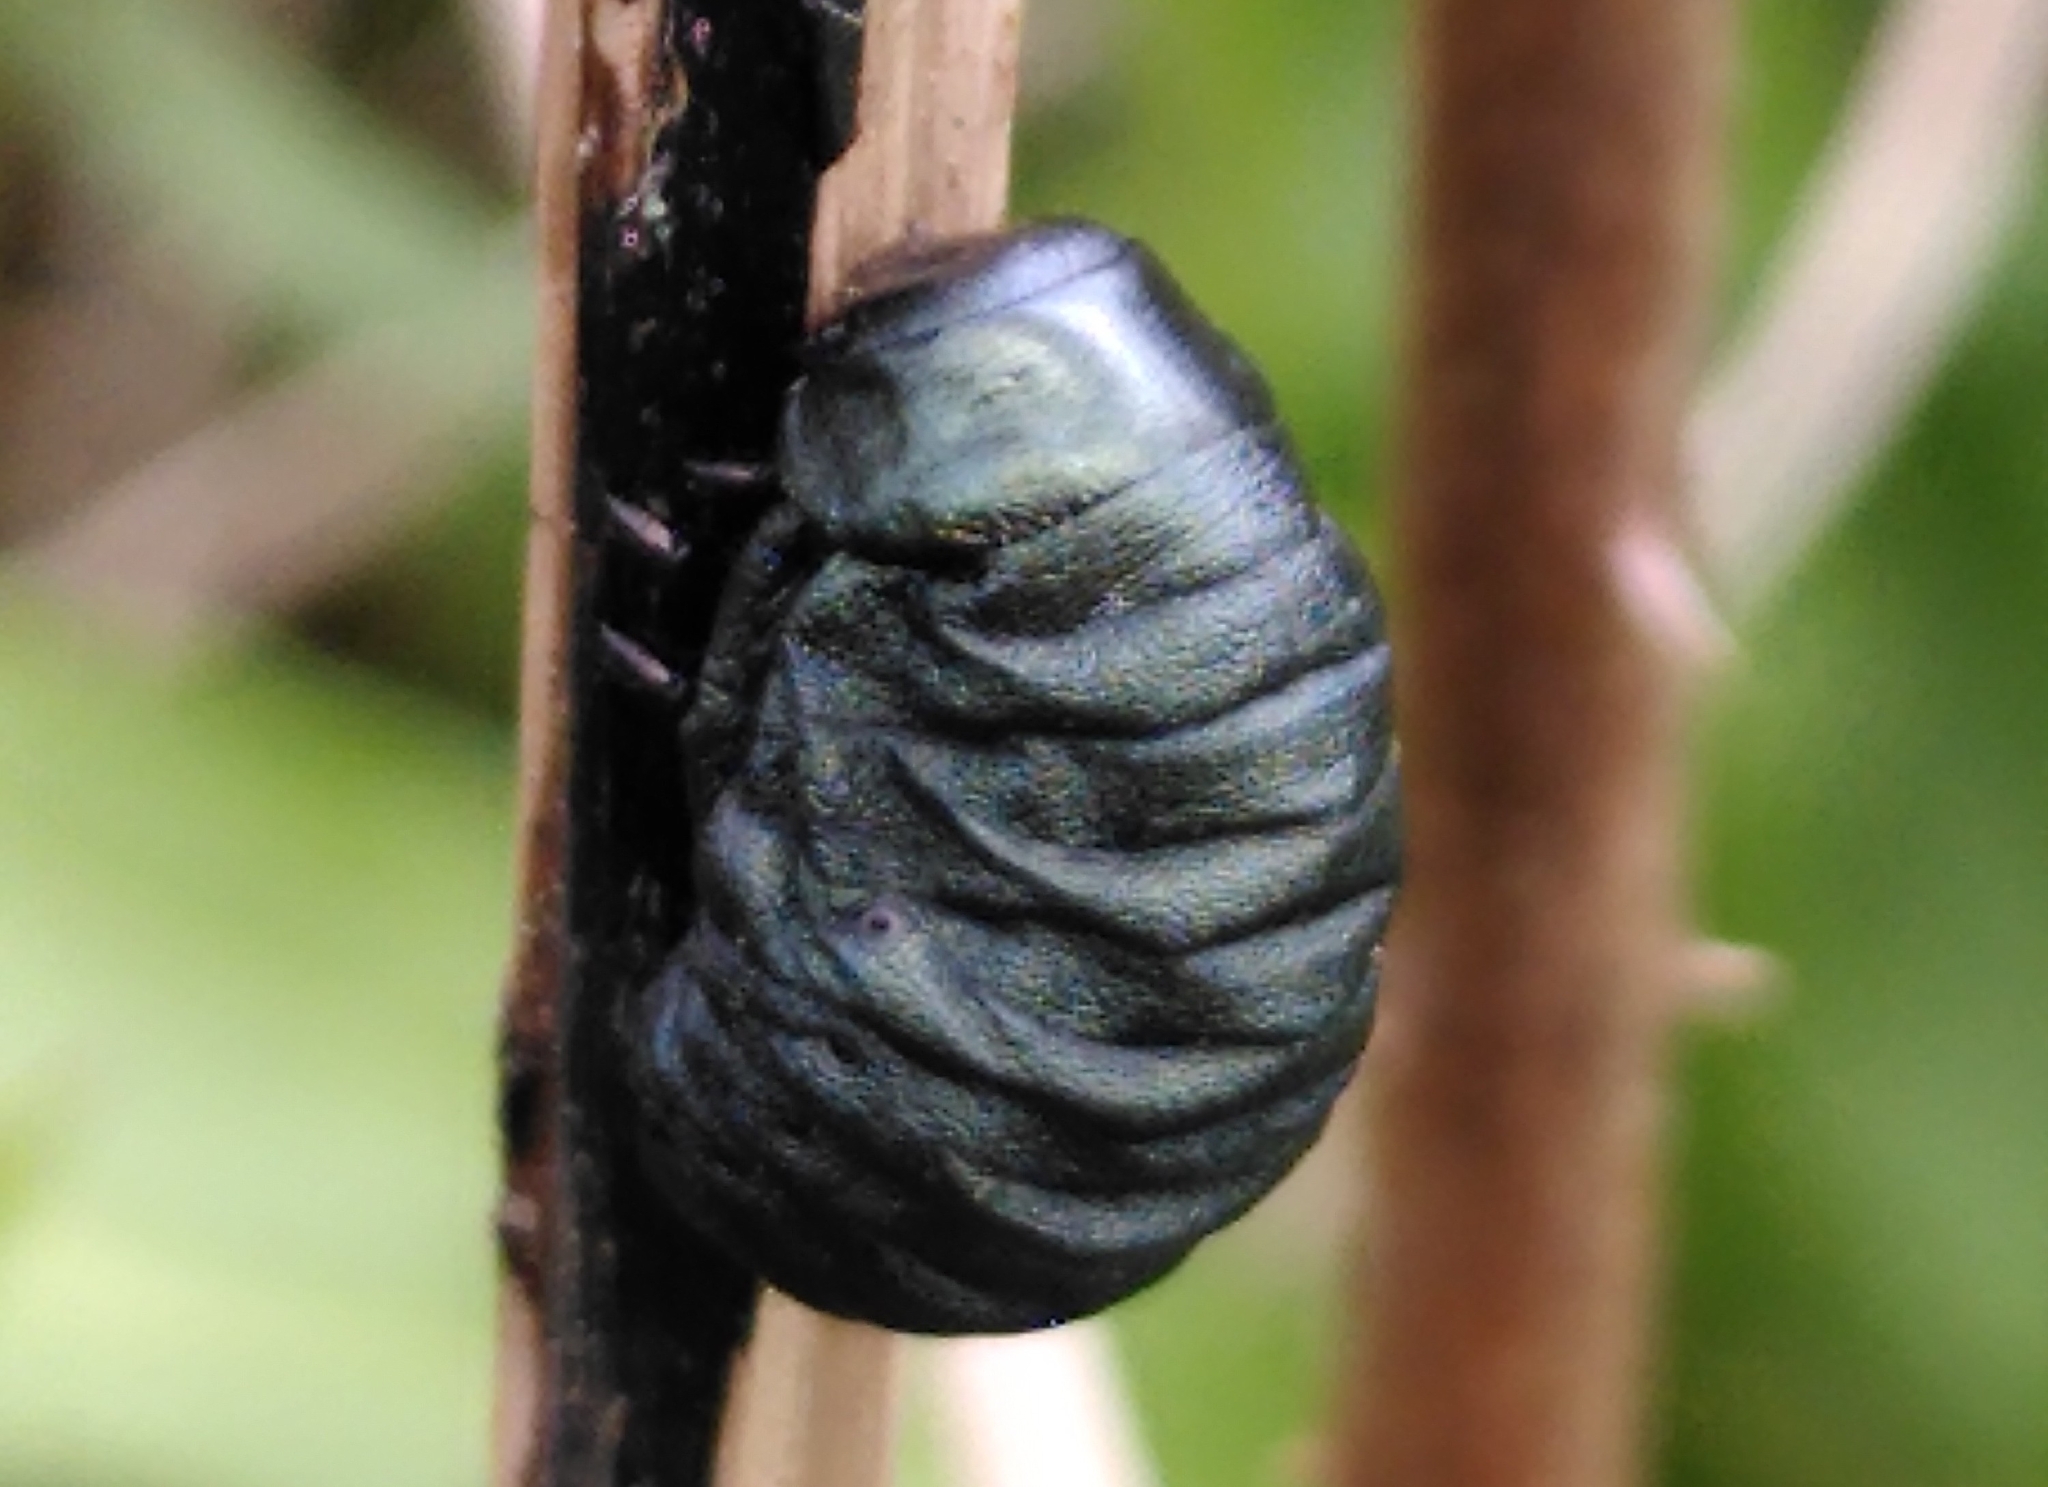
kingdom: Animalia
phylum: Arthropoda
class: Insecta
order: Coleoptera
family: Chrysomelidae
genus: Timarcha
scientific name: Timarcha tenebricosa
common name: Bloody-nosed beetle
